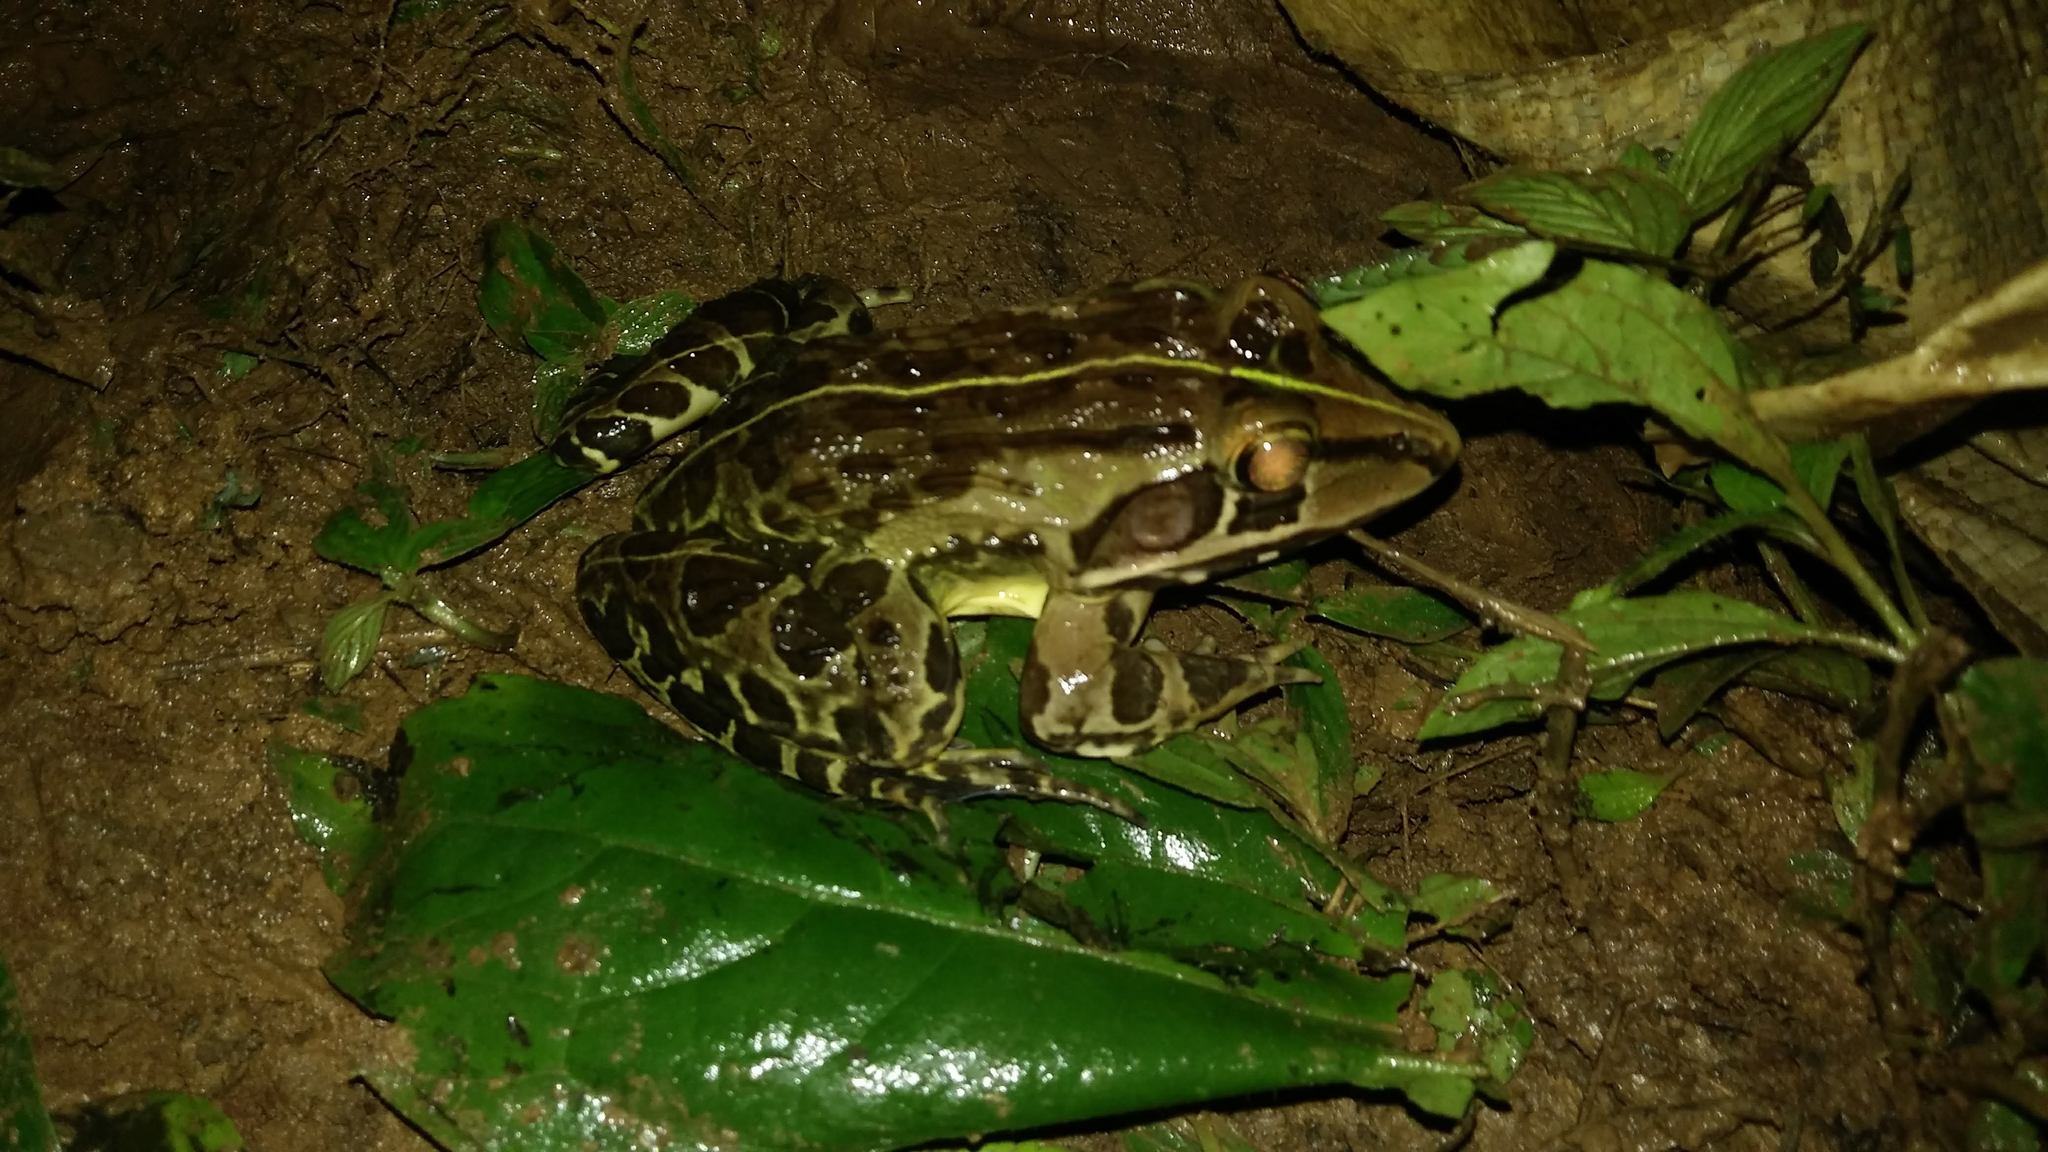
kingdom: Animalia
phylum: Chordata
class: Amphibia
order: Anura
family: Dicroglossidae
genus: Hoplobatrachus
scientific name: Hoplobatrachus tigerinus
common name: Indian bullfrog
